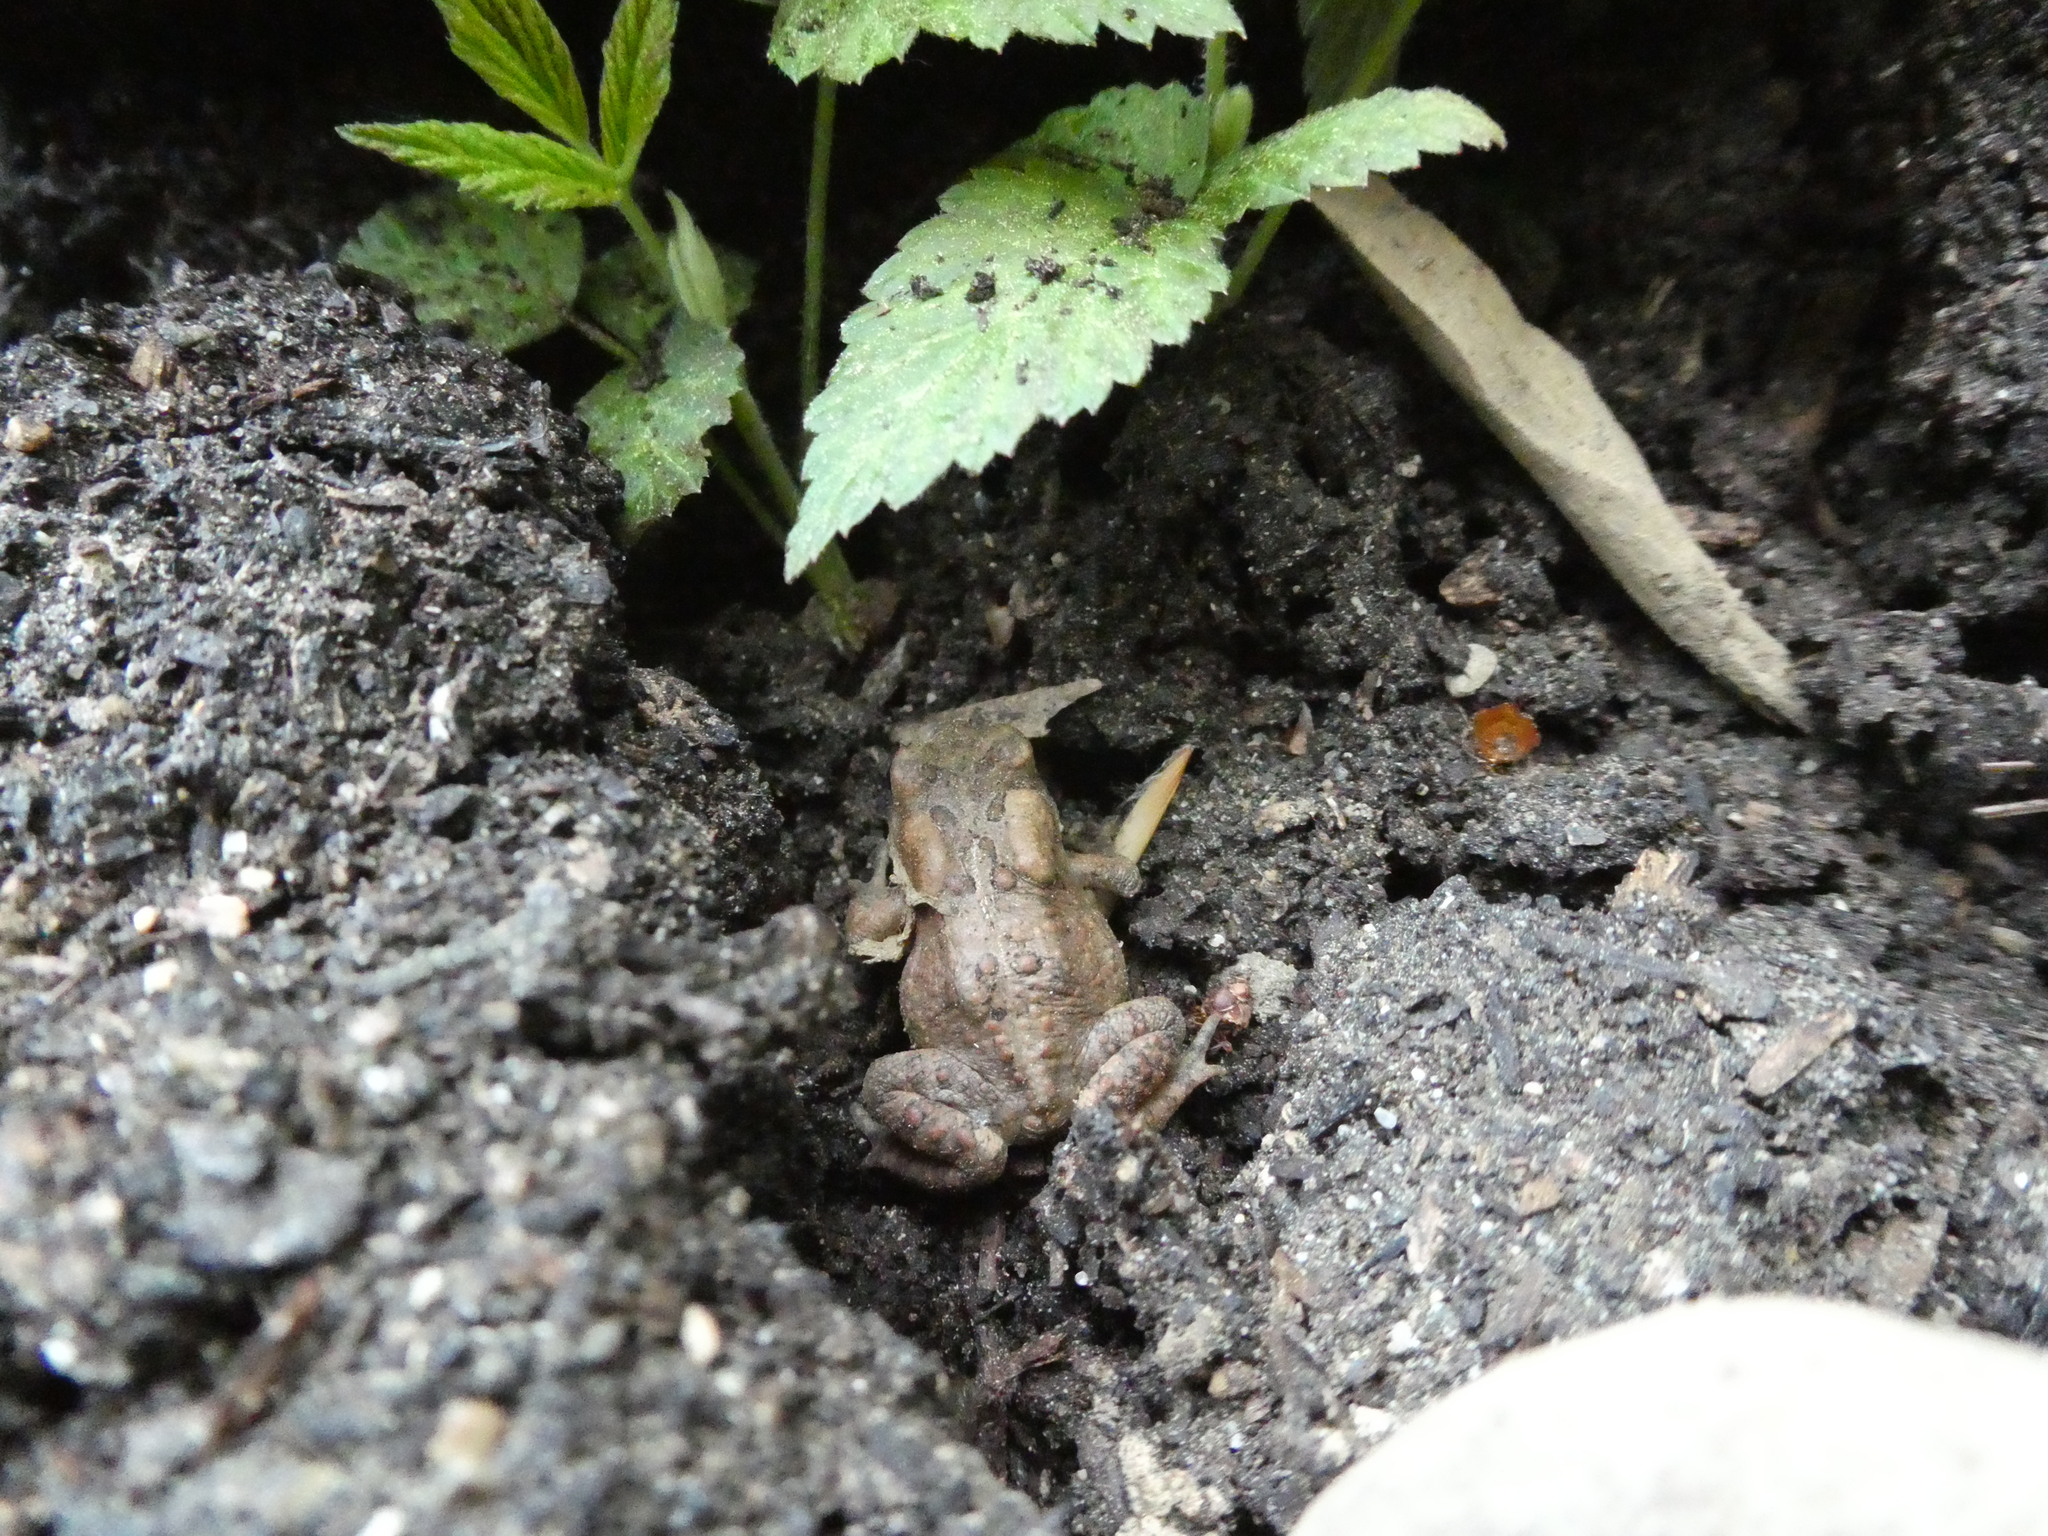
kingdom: Animalia
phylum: Chordata
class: Amphibia
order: Anura
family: Bufonidae
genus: Anaxyrus
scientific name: Anaxyrus americanus
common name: American toad
